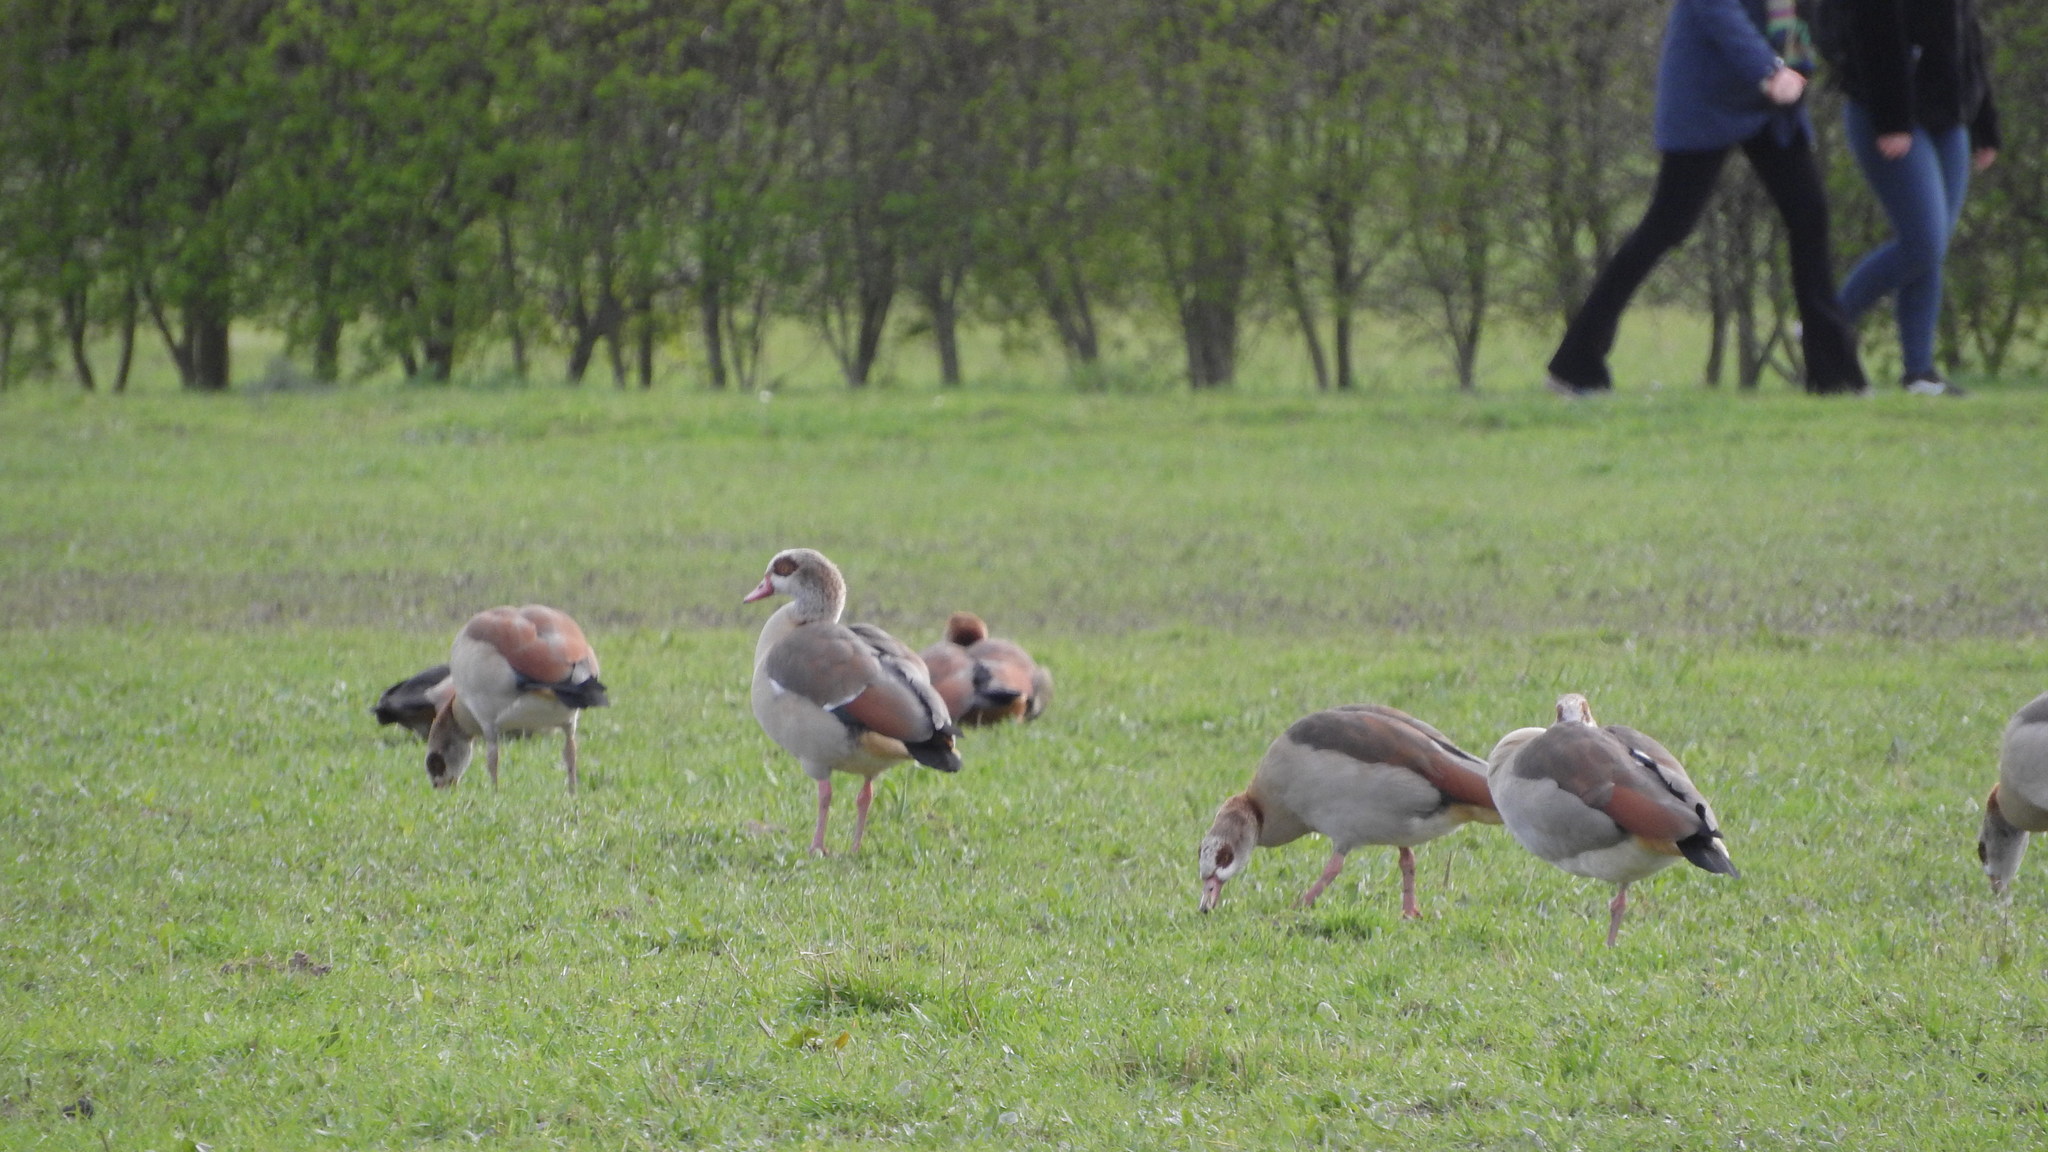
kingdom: Animalia
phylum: Chordata
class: Aves
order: Anseriformes
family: Anatidae
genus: Alopochen
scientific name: Alopochen aegyptiaca
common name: Egyptian goose
